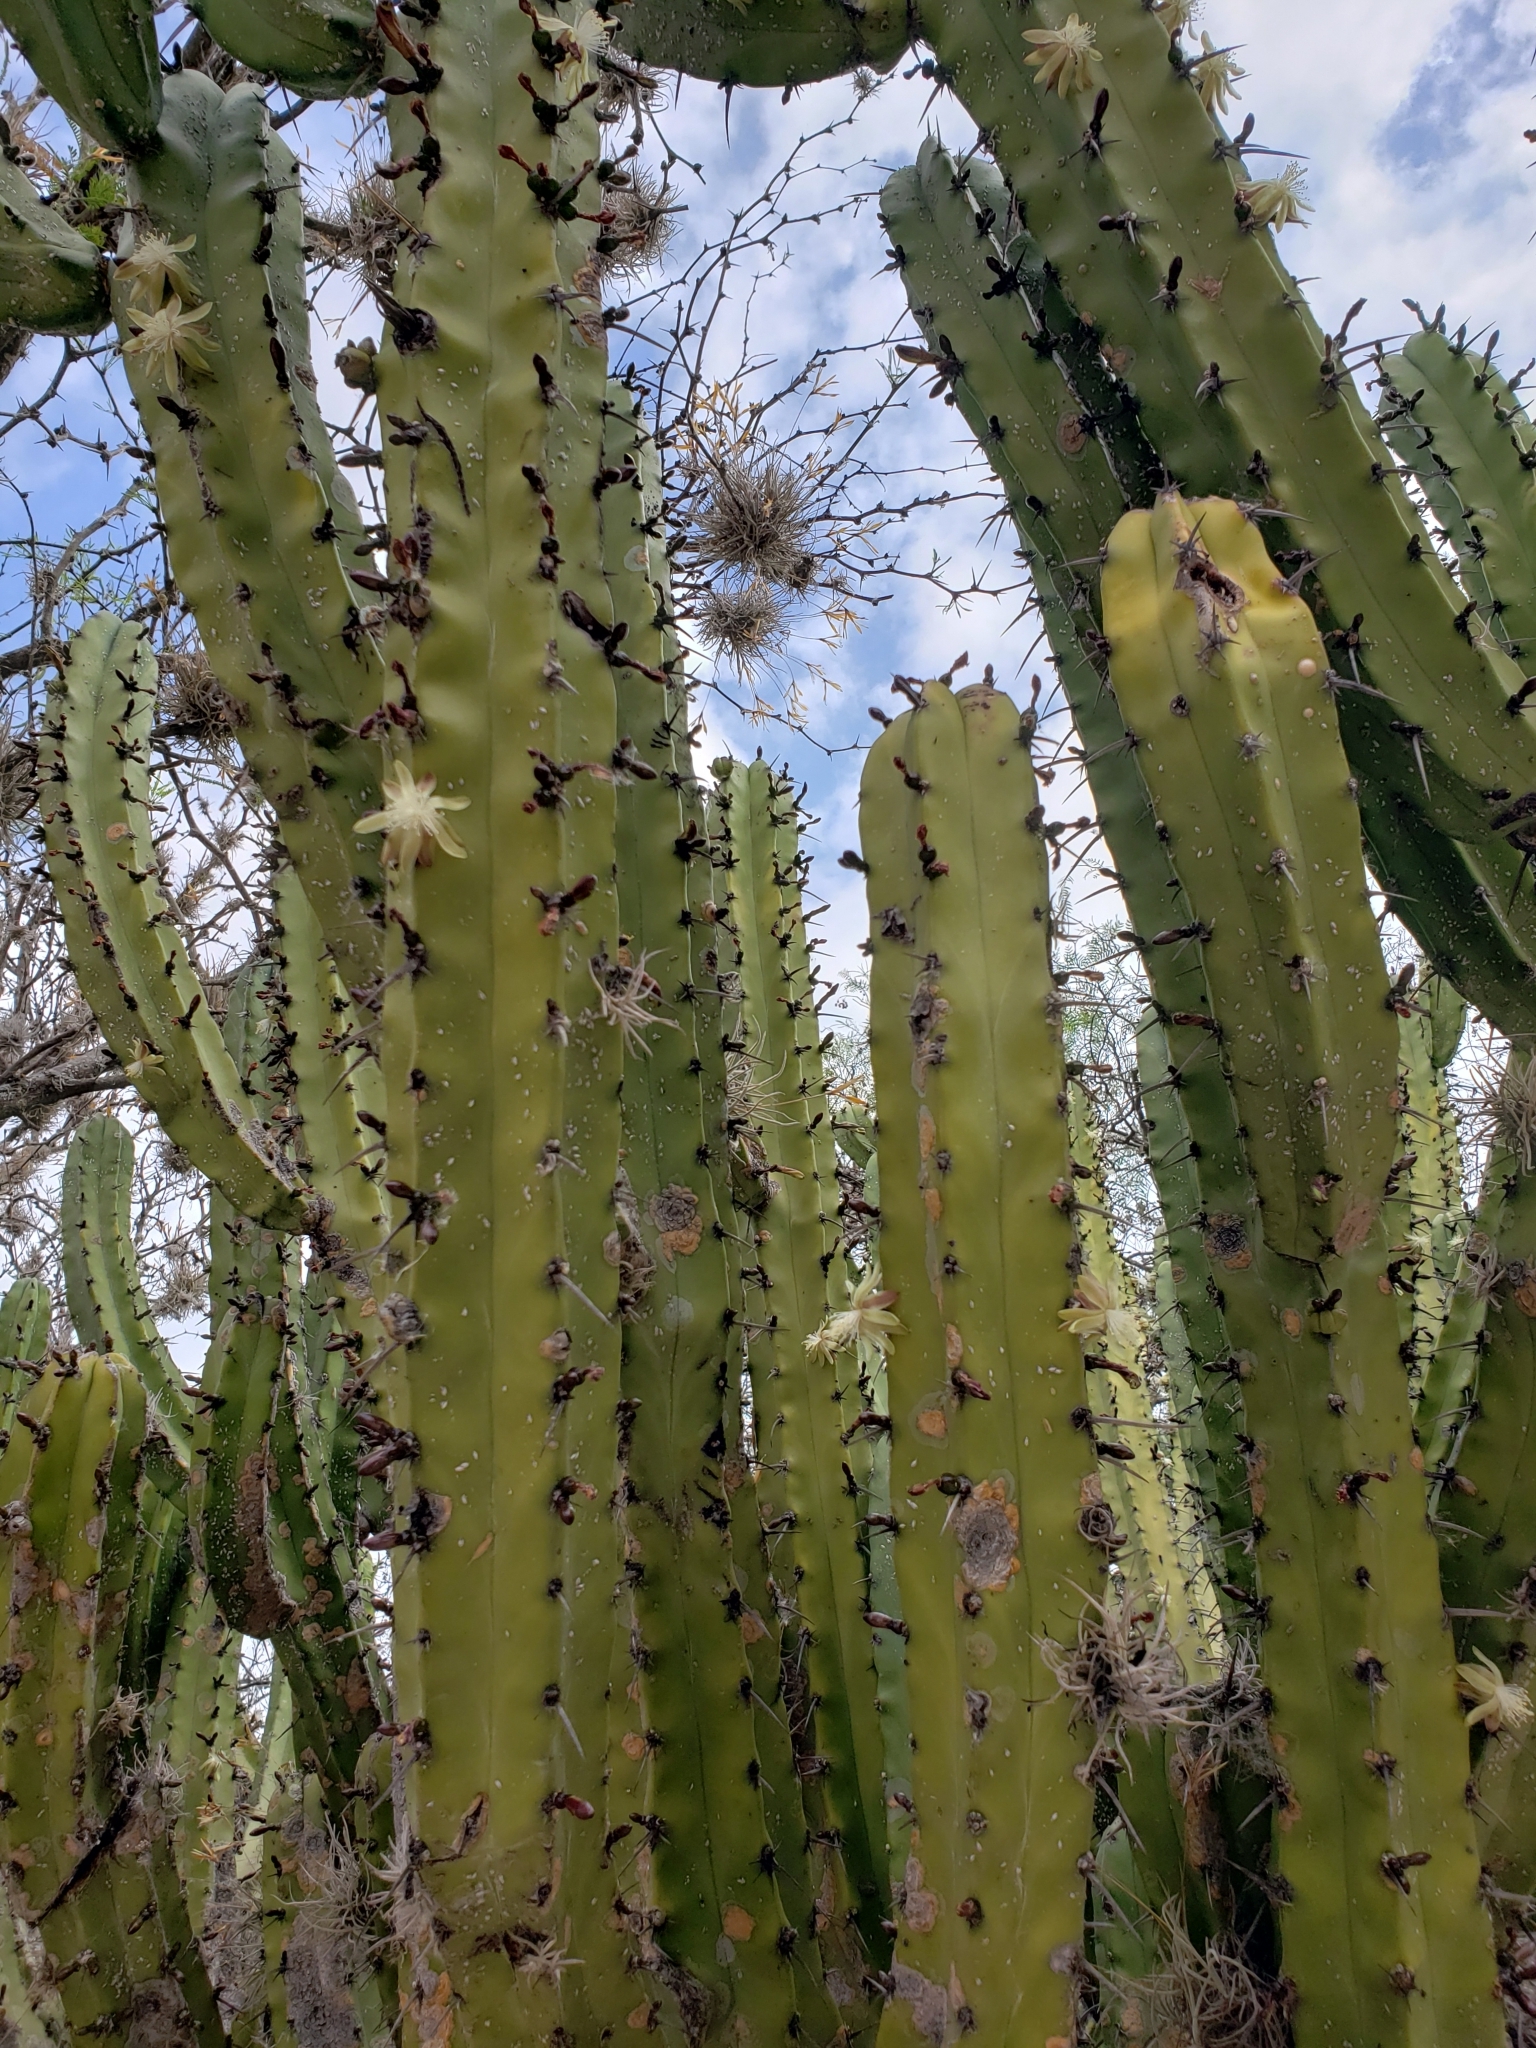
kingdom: Plantae
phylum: Tracheophyta
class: Magnoliopsida
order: Caryophyllales
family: Cactaceae
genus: Myrtillocactus
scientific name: Myrtillocactus geometrizans
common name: Bilberry cactus
